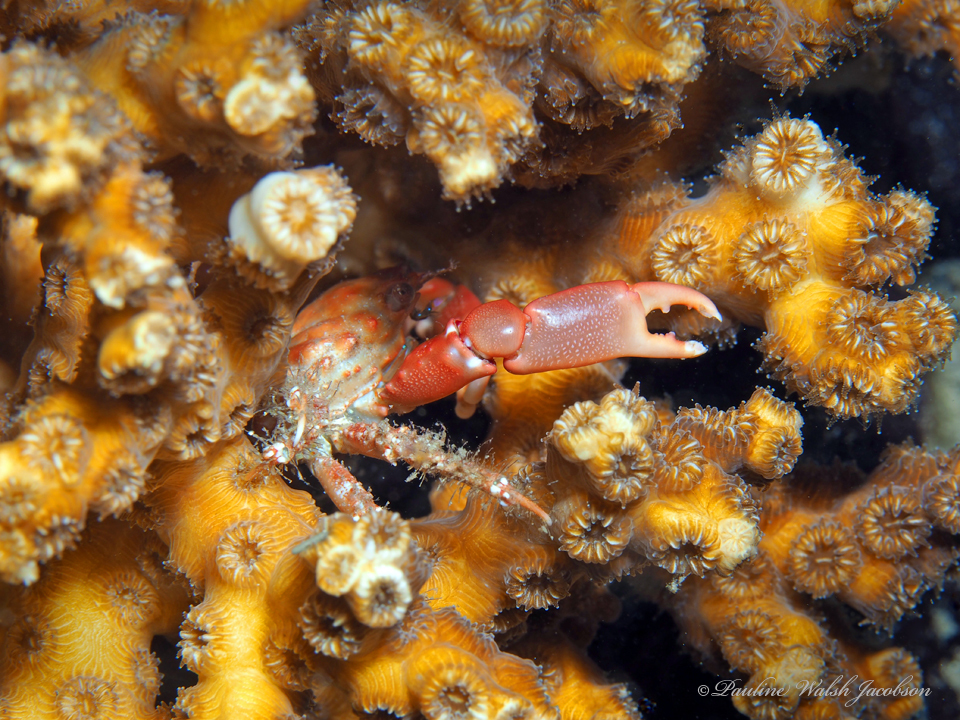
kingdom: Animalia
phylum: Arthropoda
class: Malacostraca
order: Decapoda
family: Mithracidae
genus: Mithraculus
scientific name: Mithraculus forceps
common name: Red-ridged clinging crab
